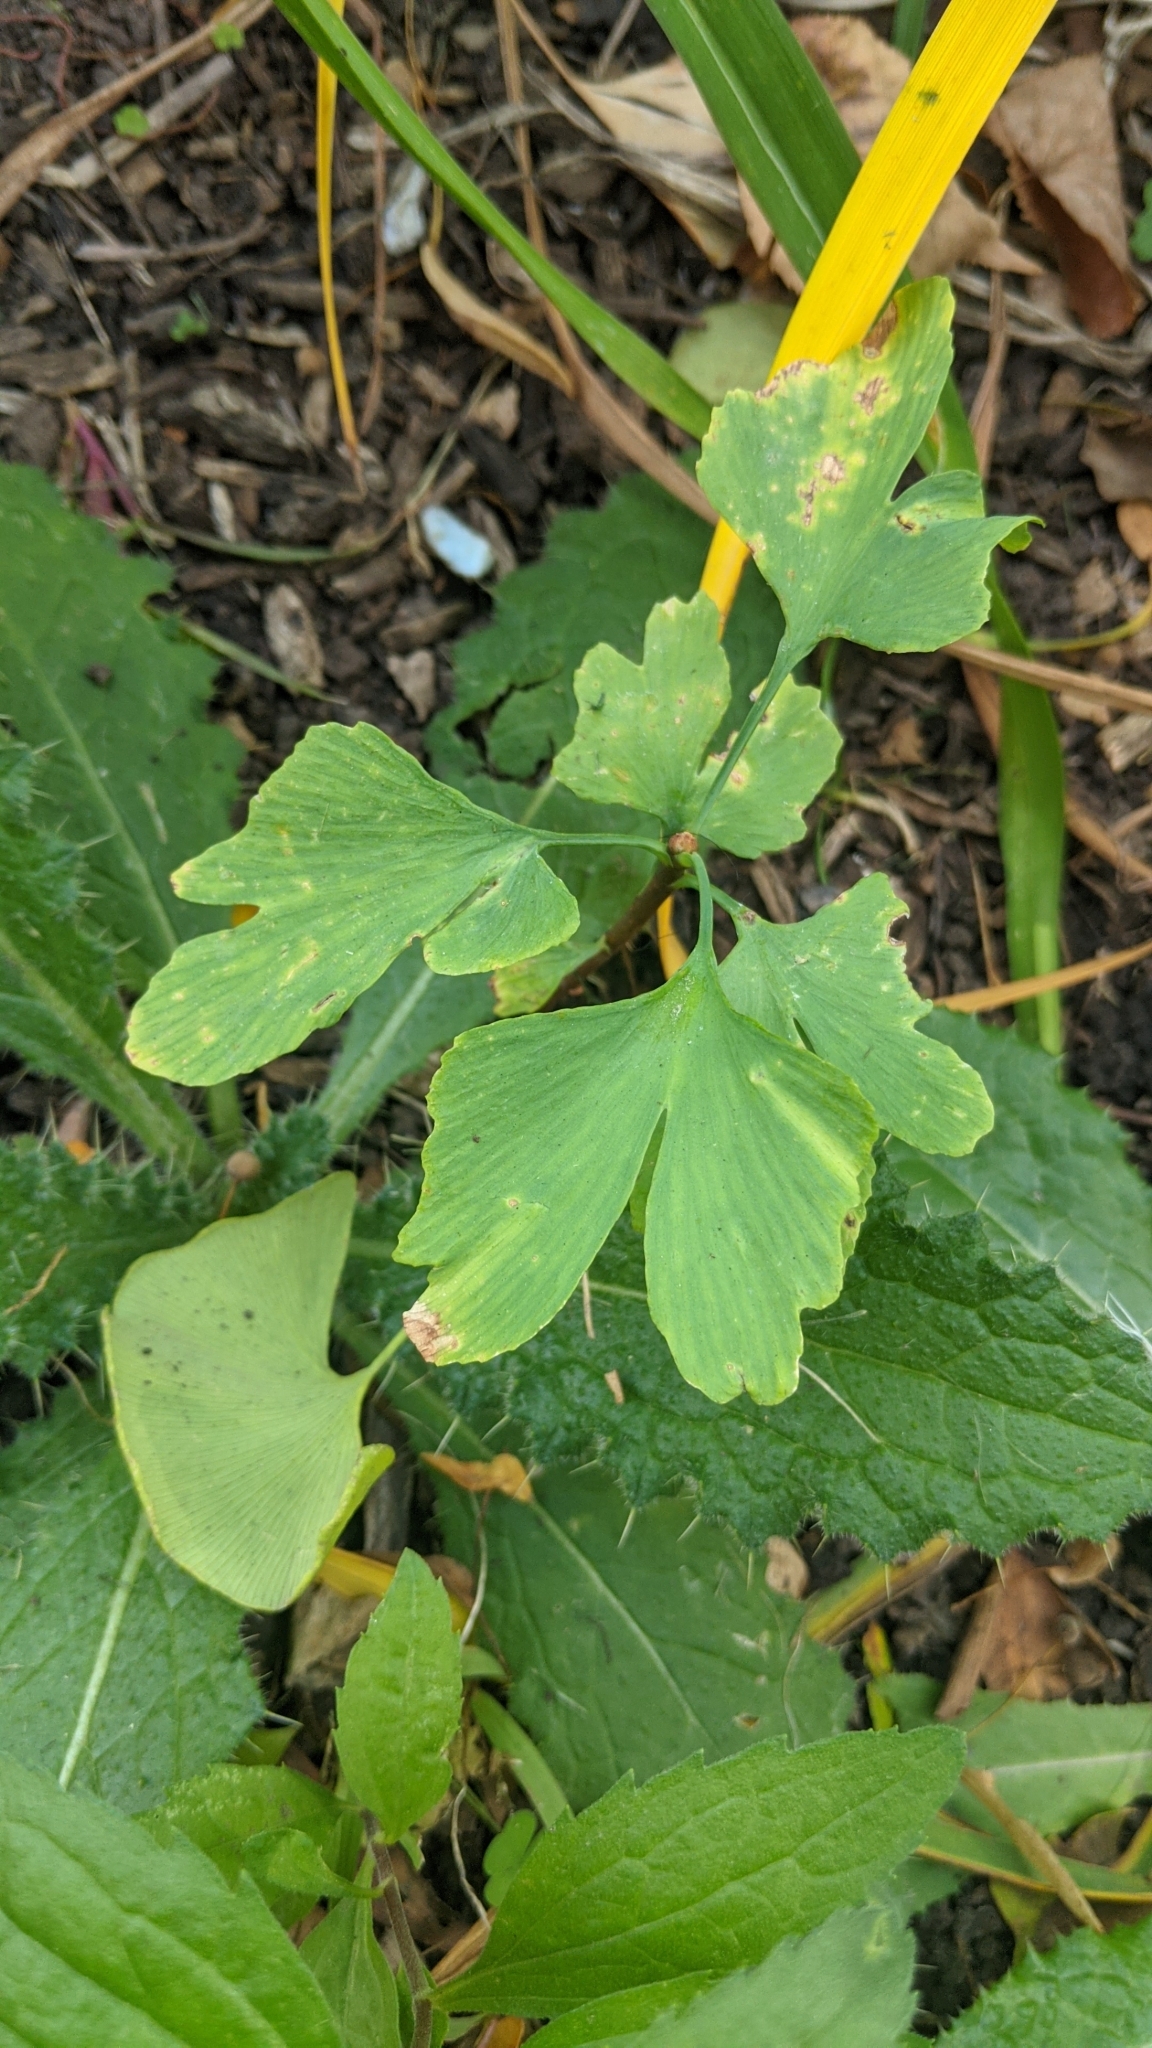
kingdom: Plantae
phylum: Tracheophyta
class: Ginkgoopsida
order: Ginkgoales
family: Ginkgoaceae
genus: Ginkgo
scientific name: Ginkgo biloba
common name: Ginkgo
